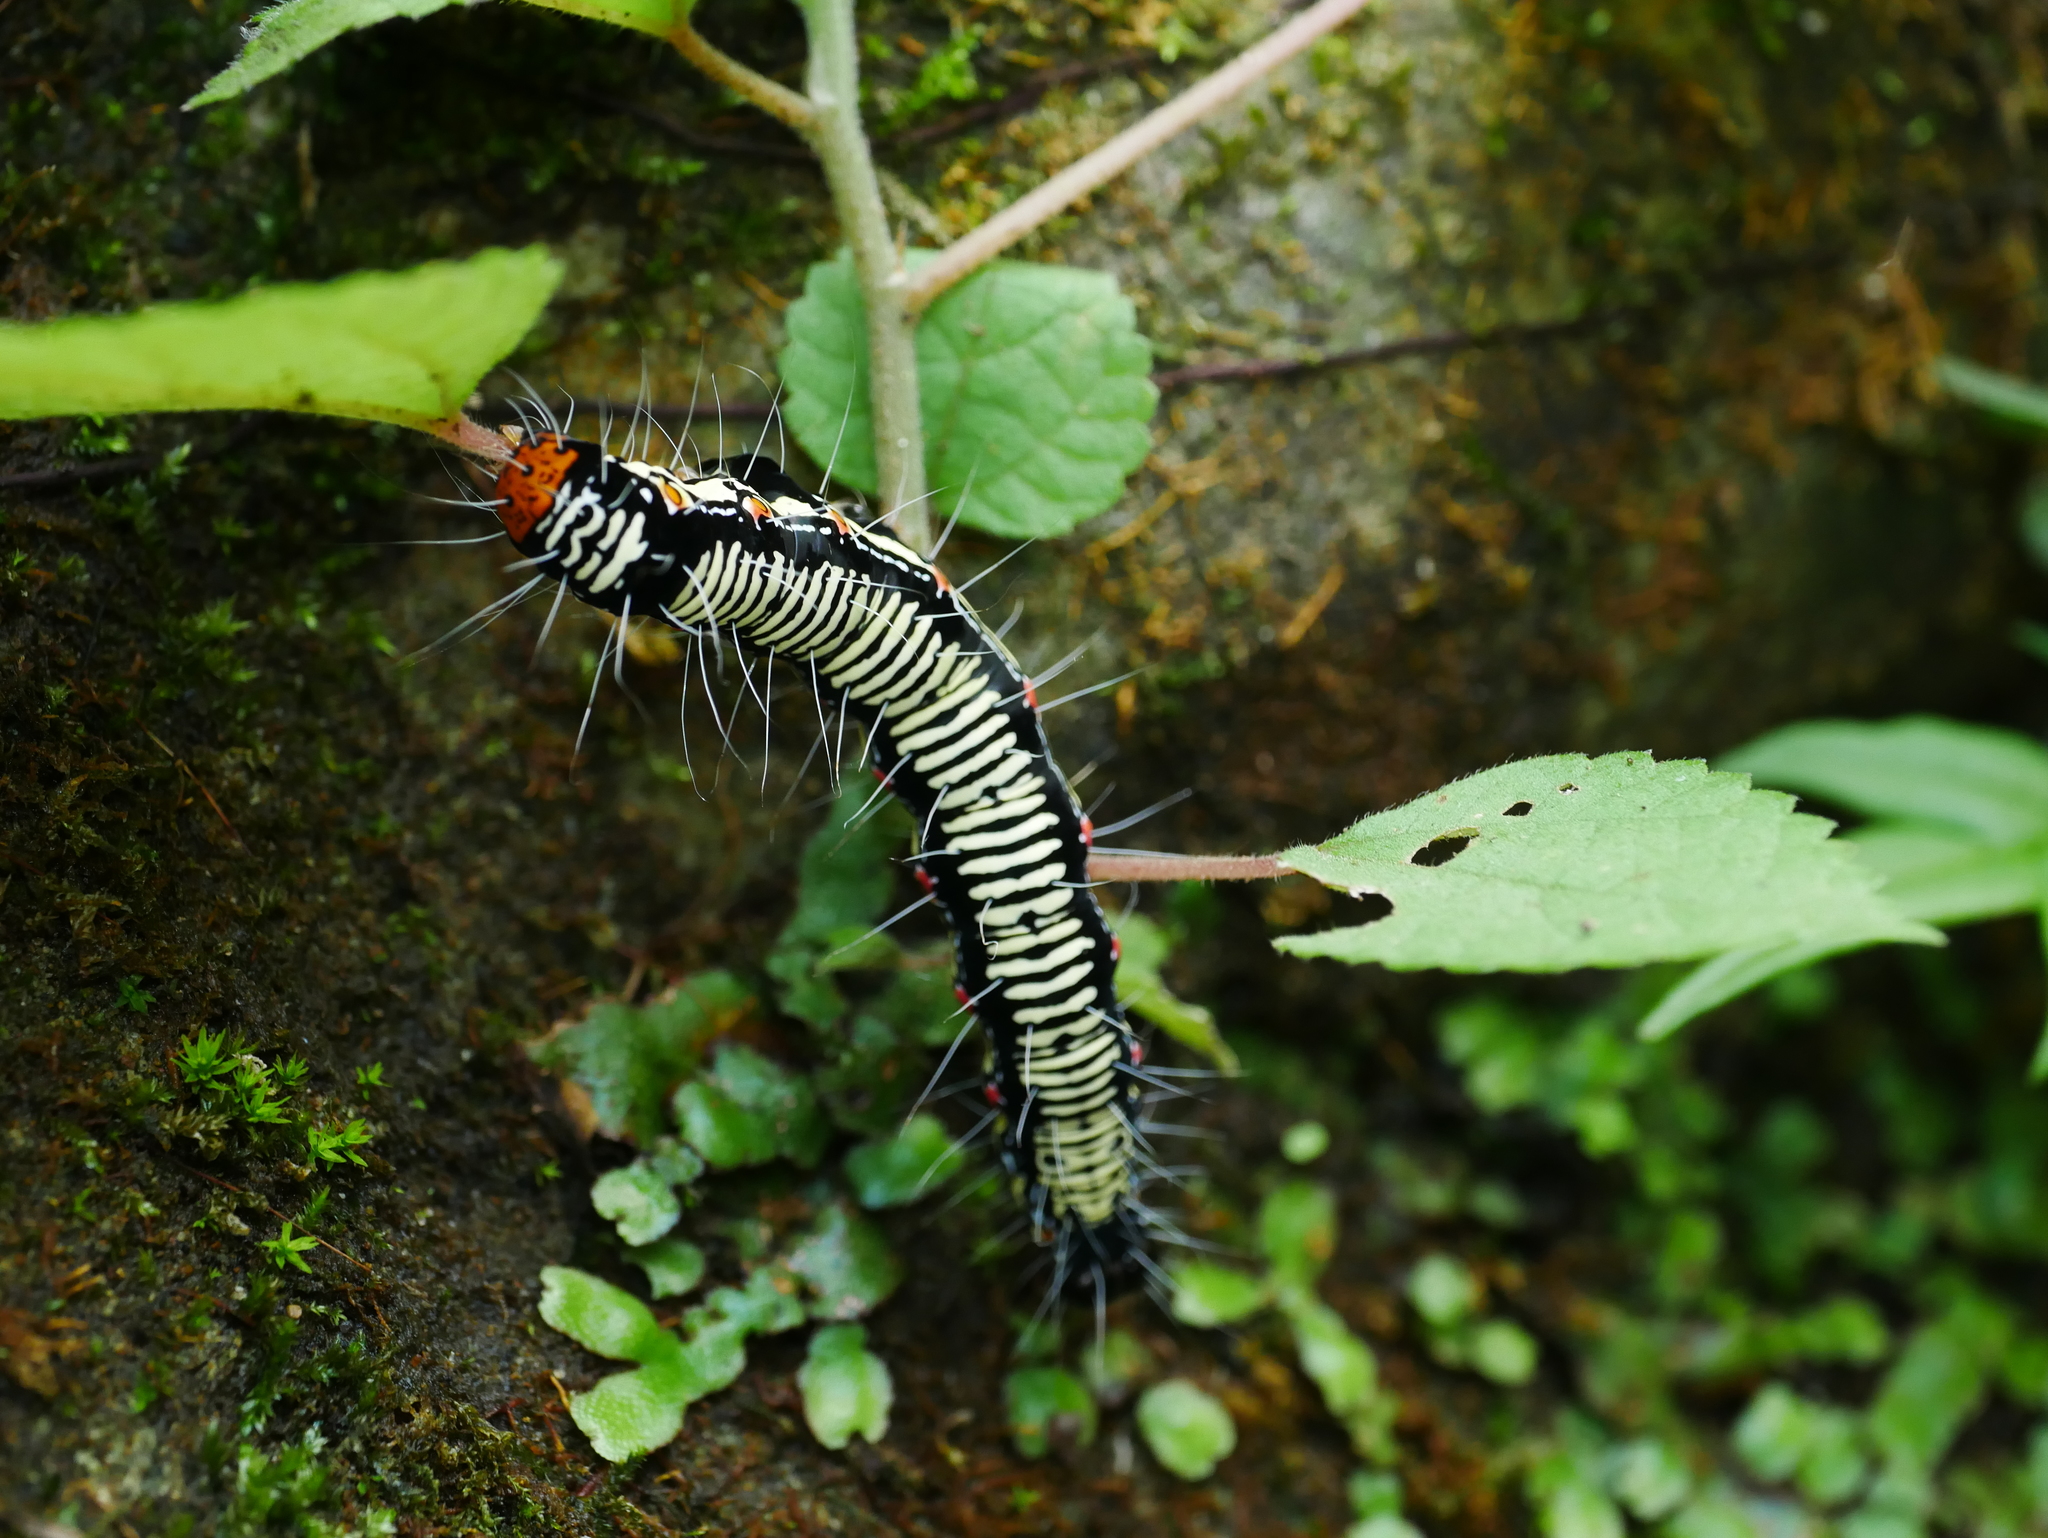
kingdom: Animalia
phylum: Arthropoda
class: Insecta
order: Lepidoptera
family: Erebidae
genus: Arcte
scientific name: Arcte coerula
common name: Ramie moth
